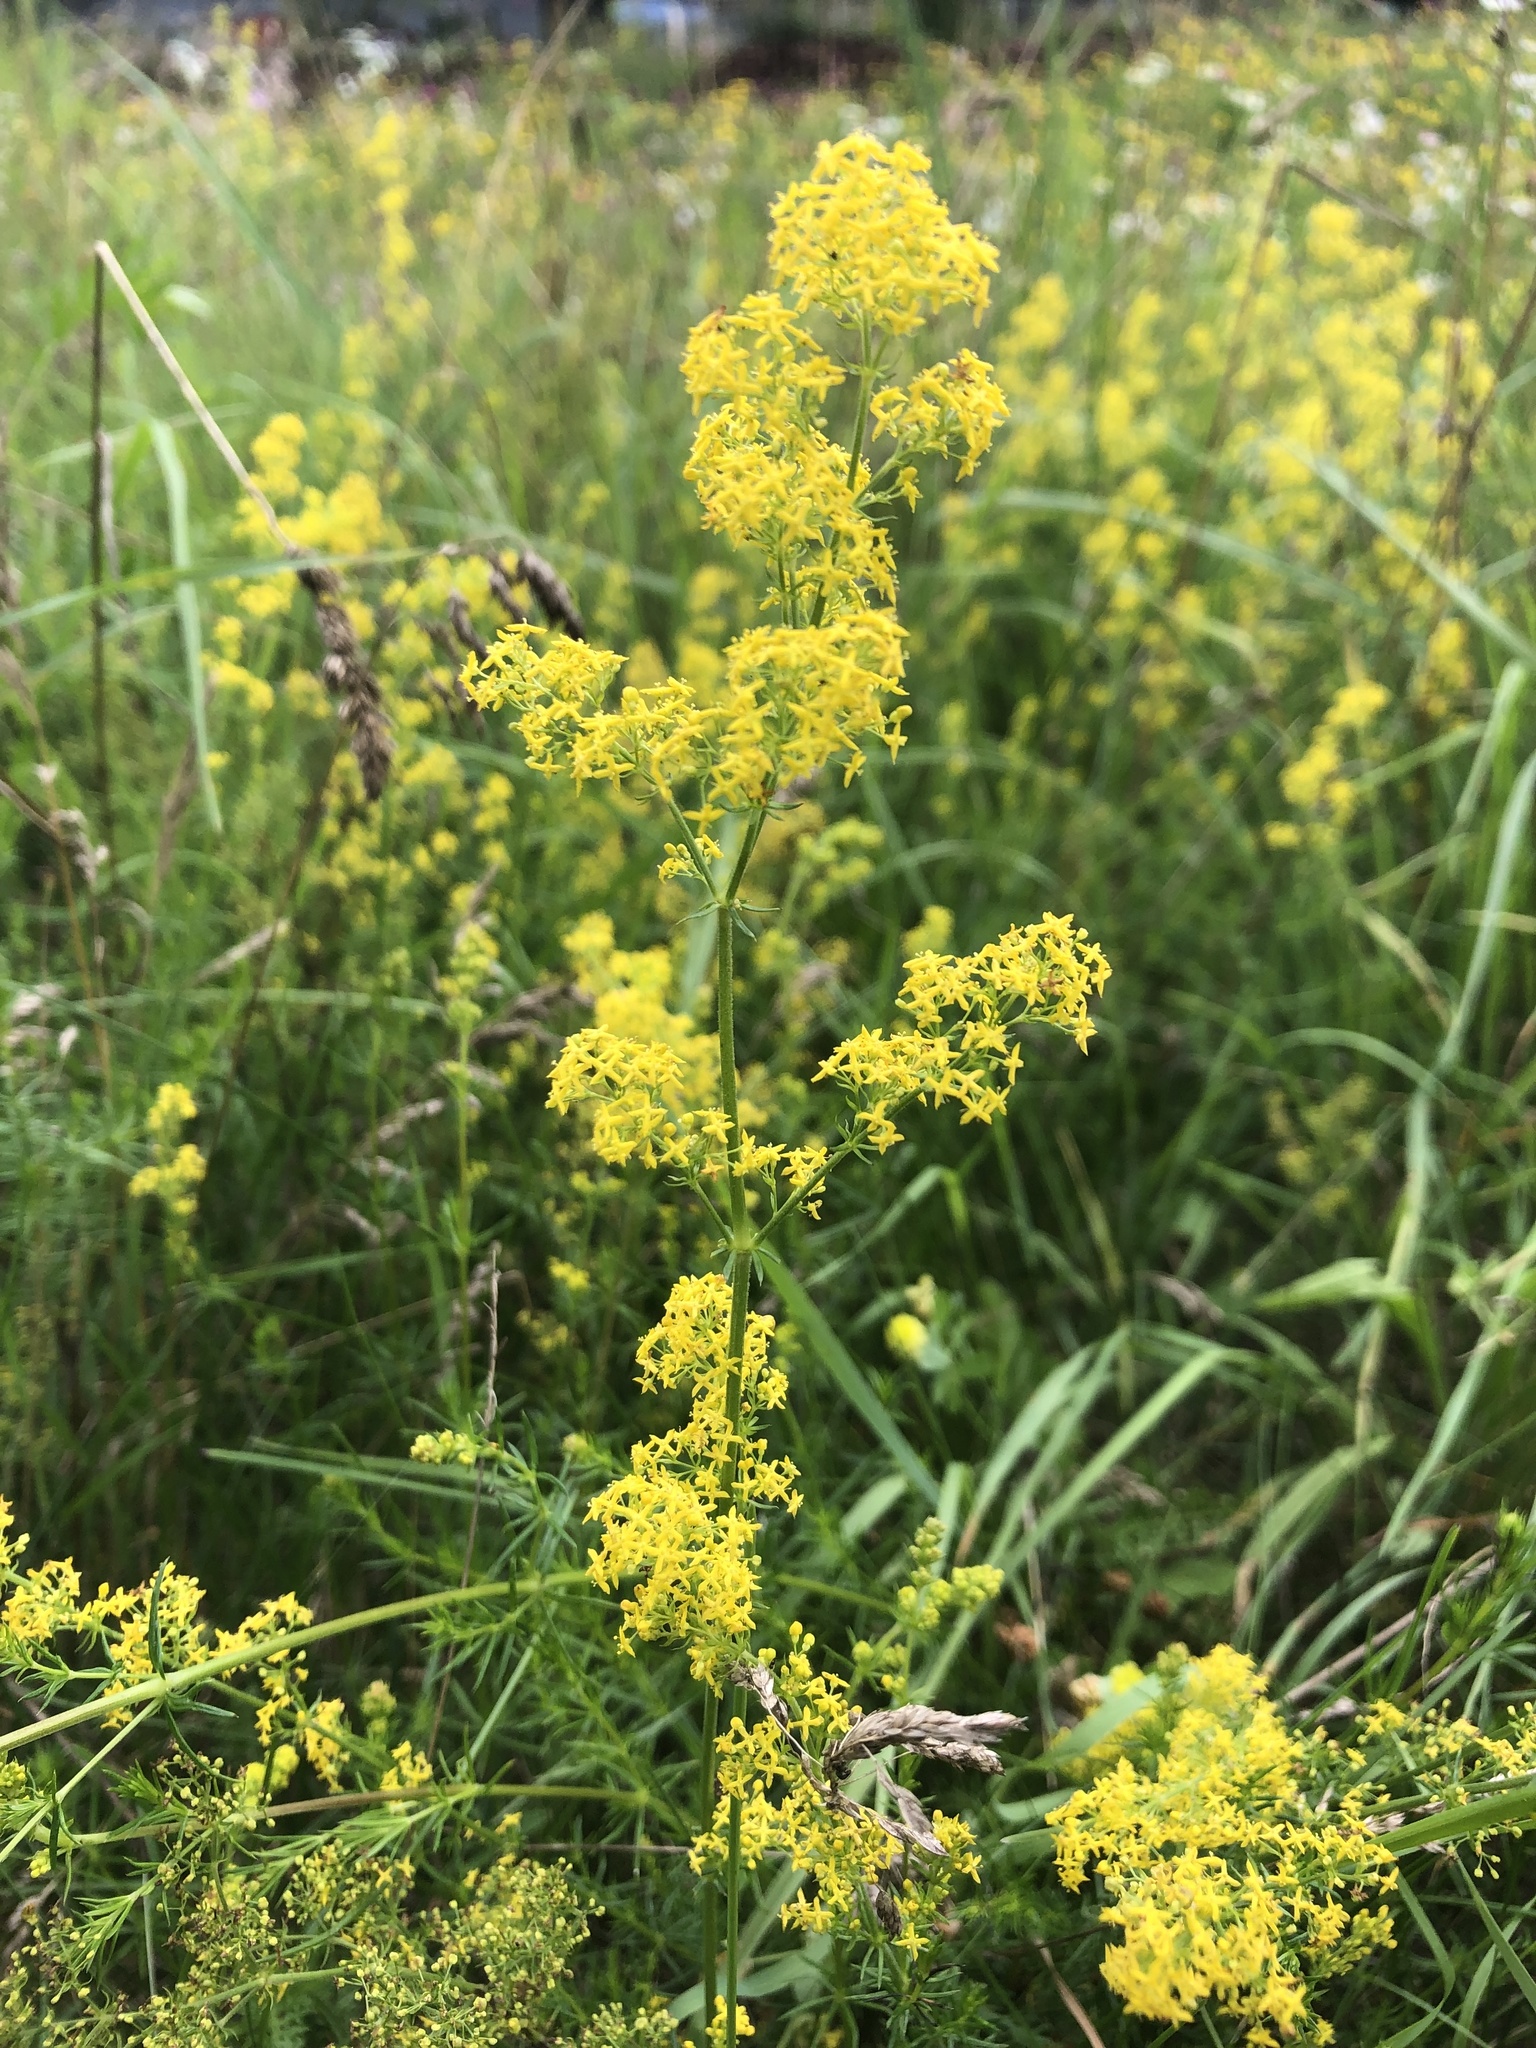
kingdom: Plantae
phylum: Tracheophyta
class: Magnoliopsida
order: Gentianales
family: Rubiaceae
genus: Galium
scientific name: Galium verum
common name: Lady's bedstraw
